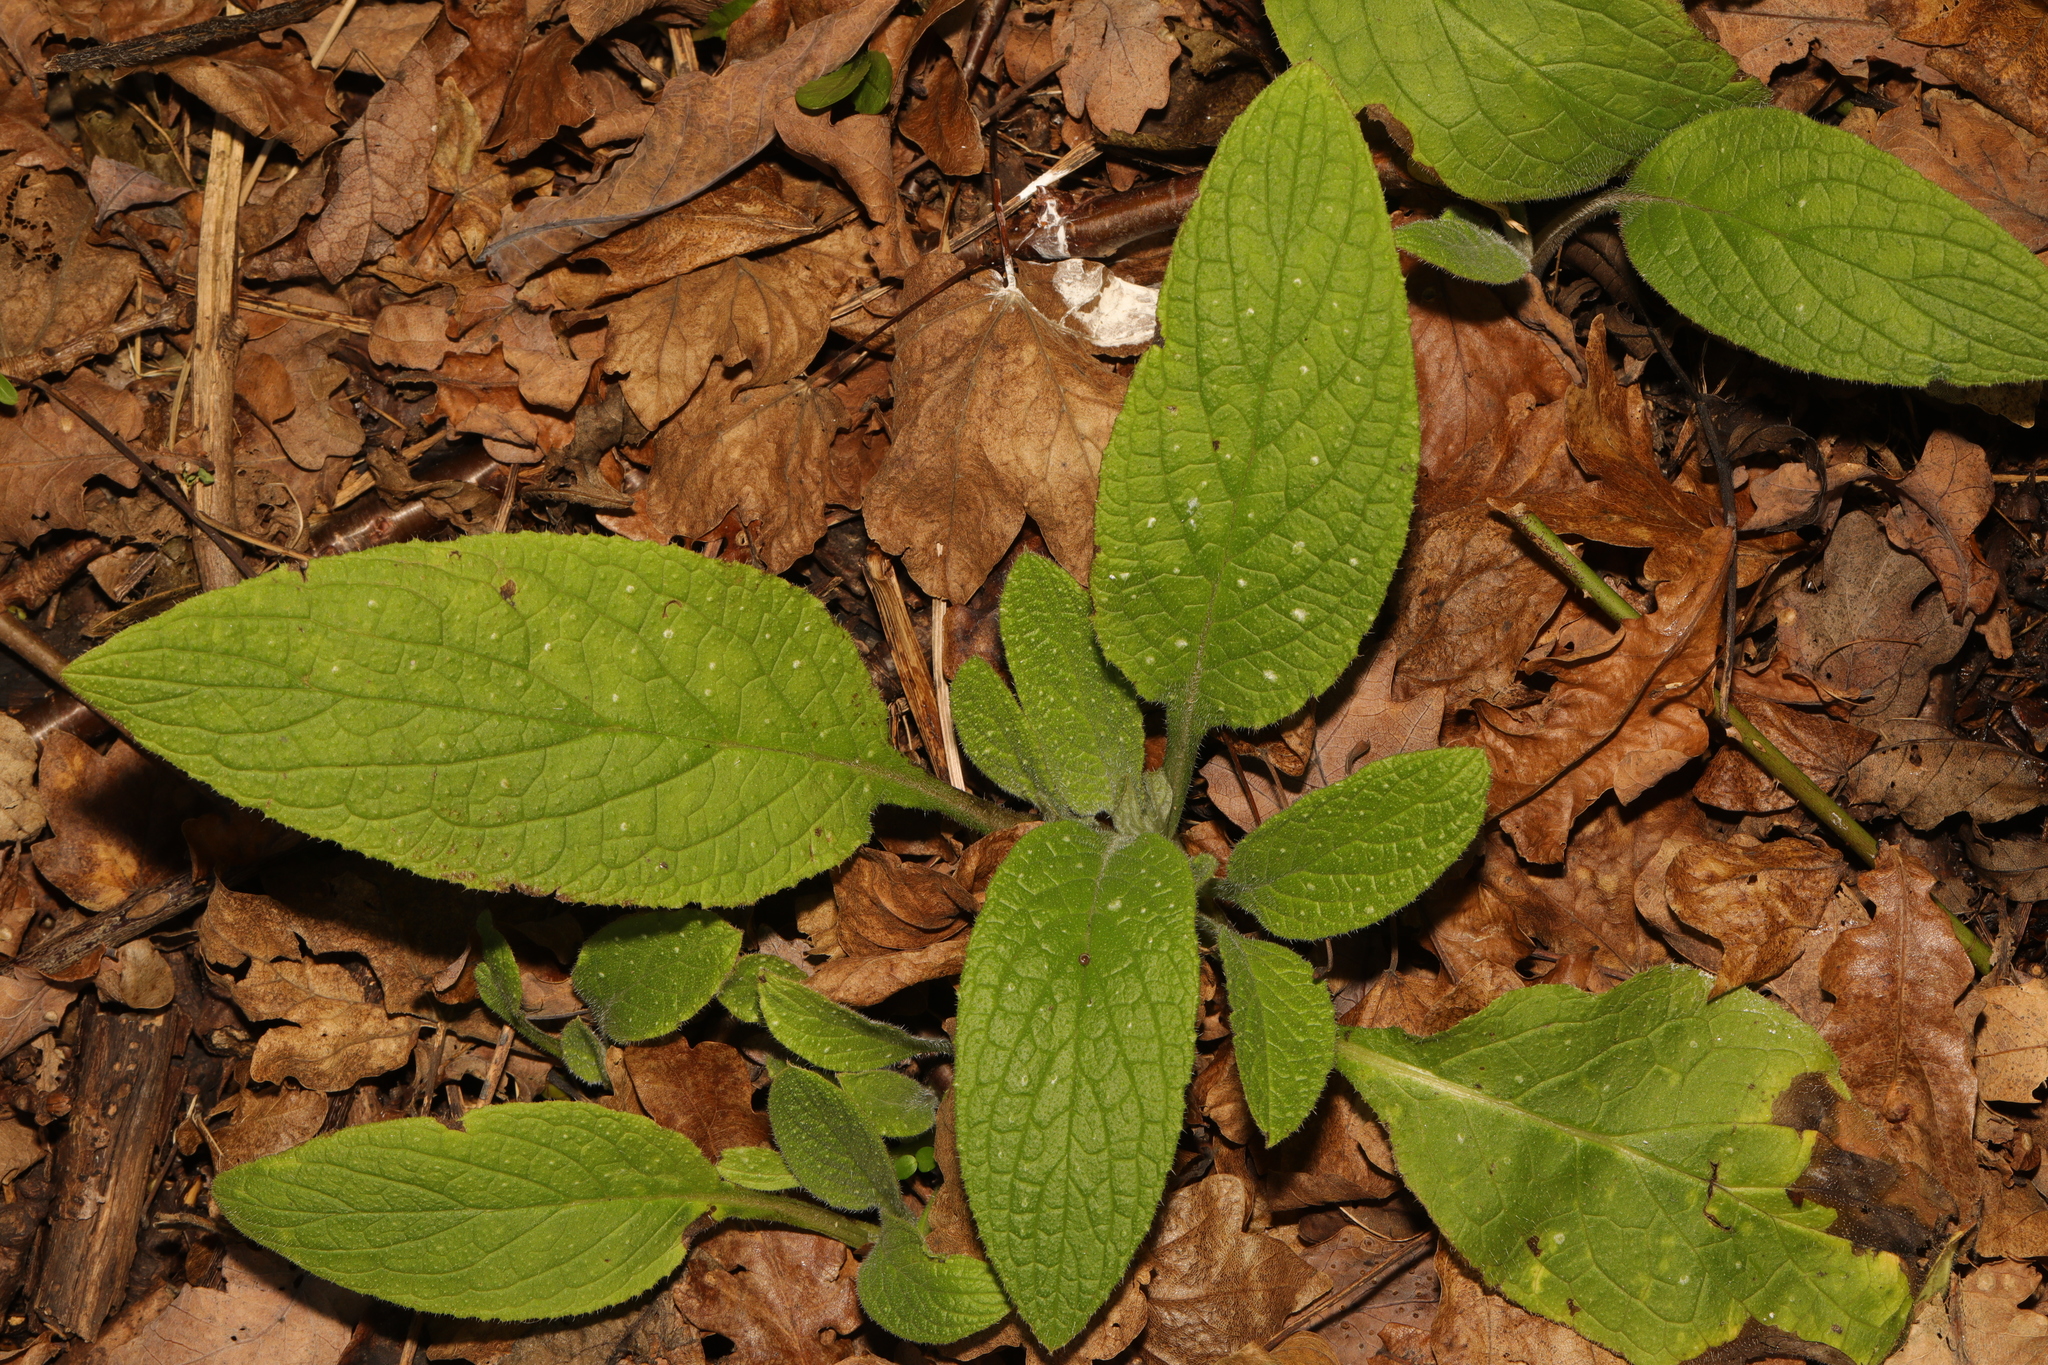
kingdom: Plantae
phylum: Tracheophyta
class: Magnoliopsida
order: Lamiales
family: Plantaginaceae
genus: Digitalis
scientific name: Digitalis purpurea
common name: Foxglove
